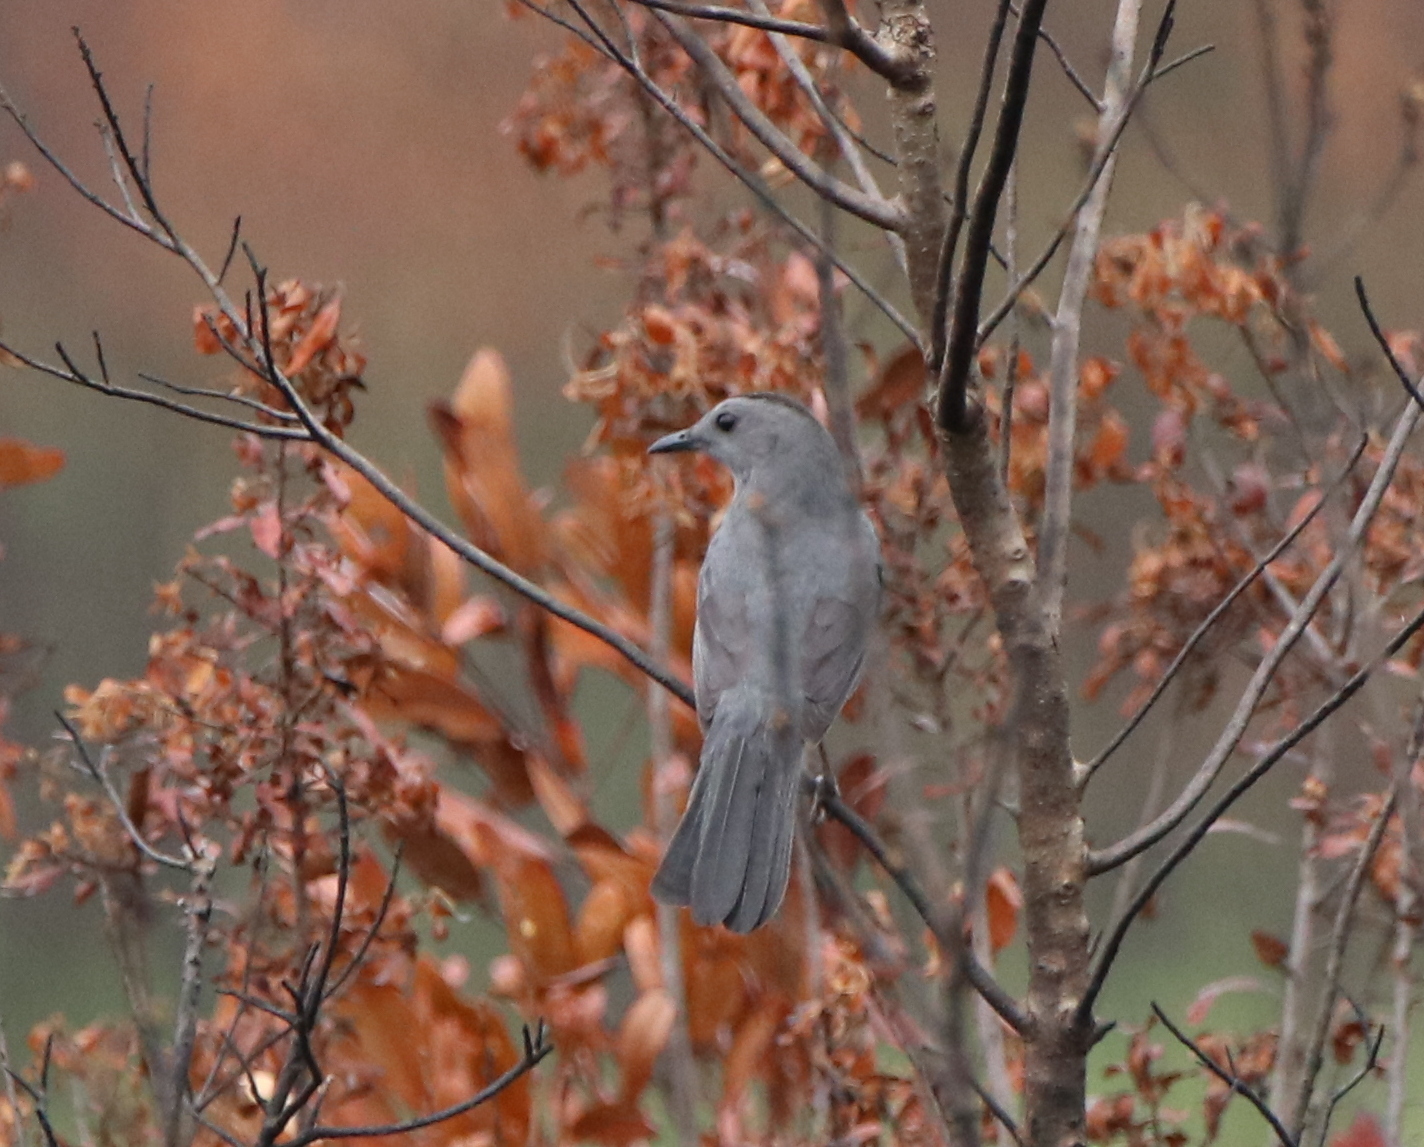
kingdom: Animalia
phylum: Chordata
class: Aves
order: Passeriformes
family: Mimidae
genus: Dumetella
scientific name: Dumetella carolinensis
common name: Gray catbird
